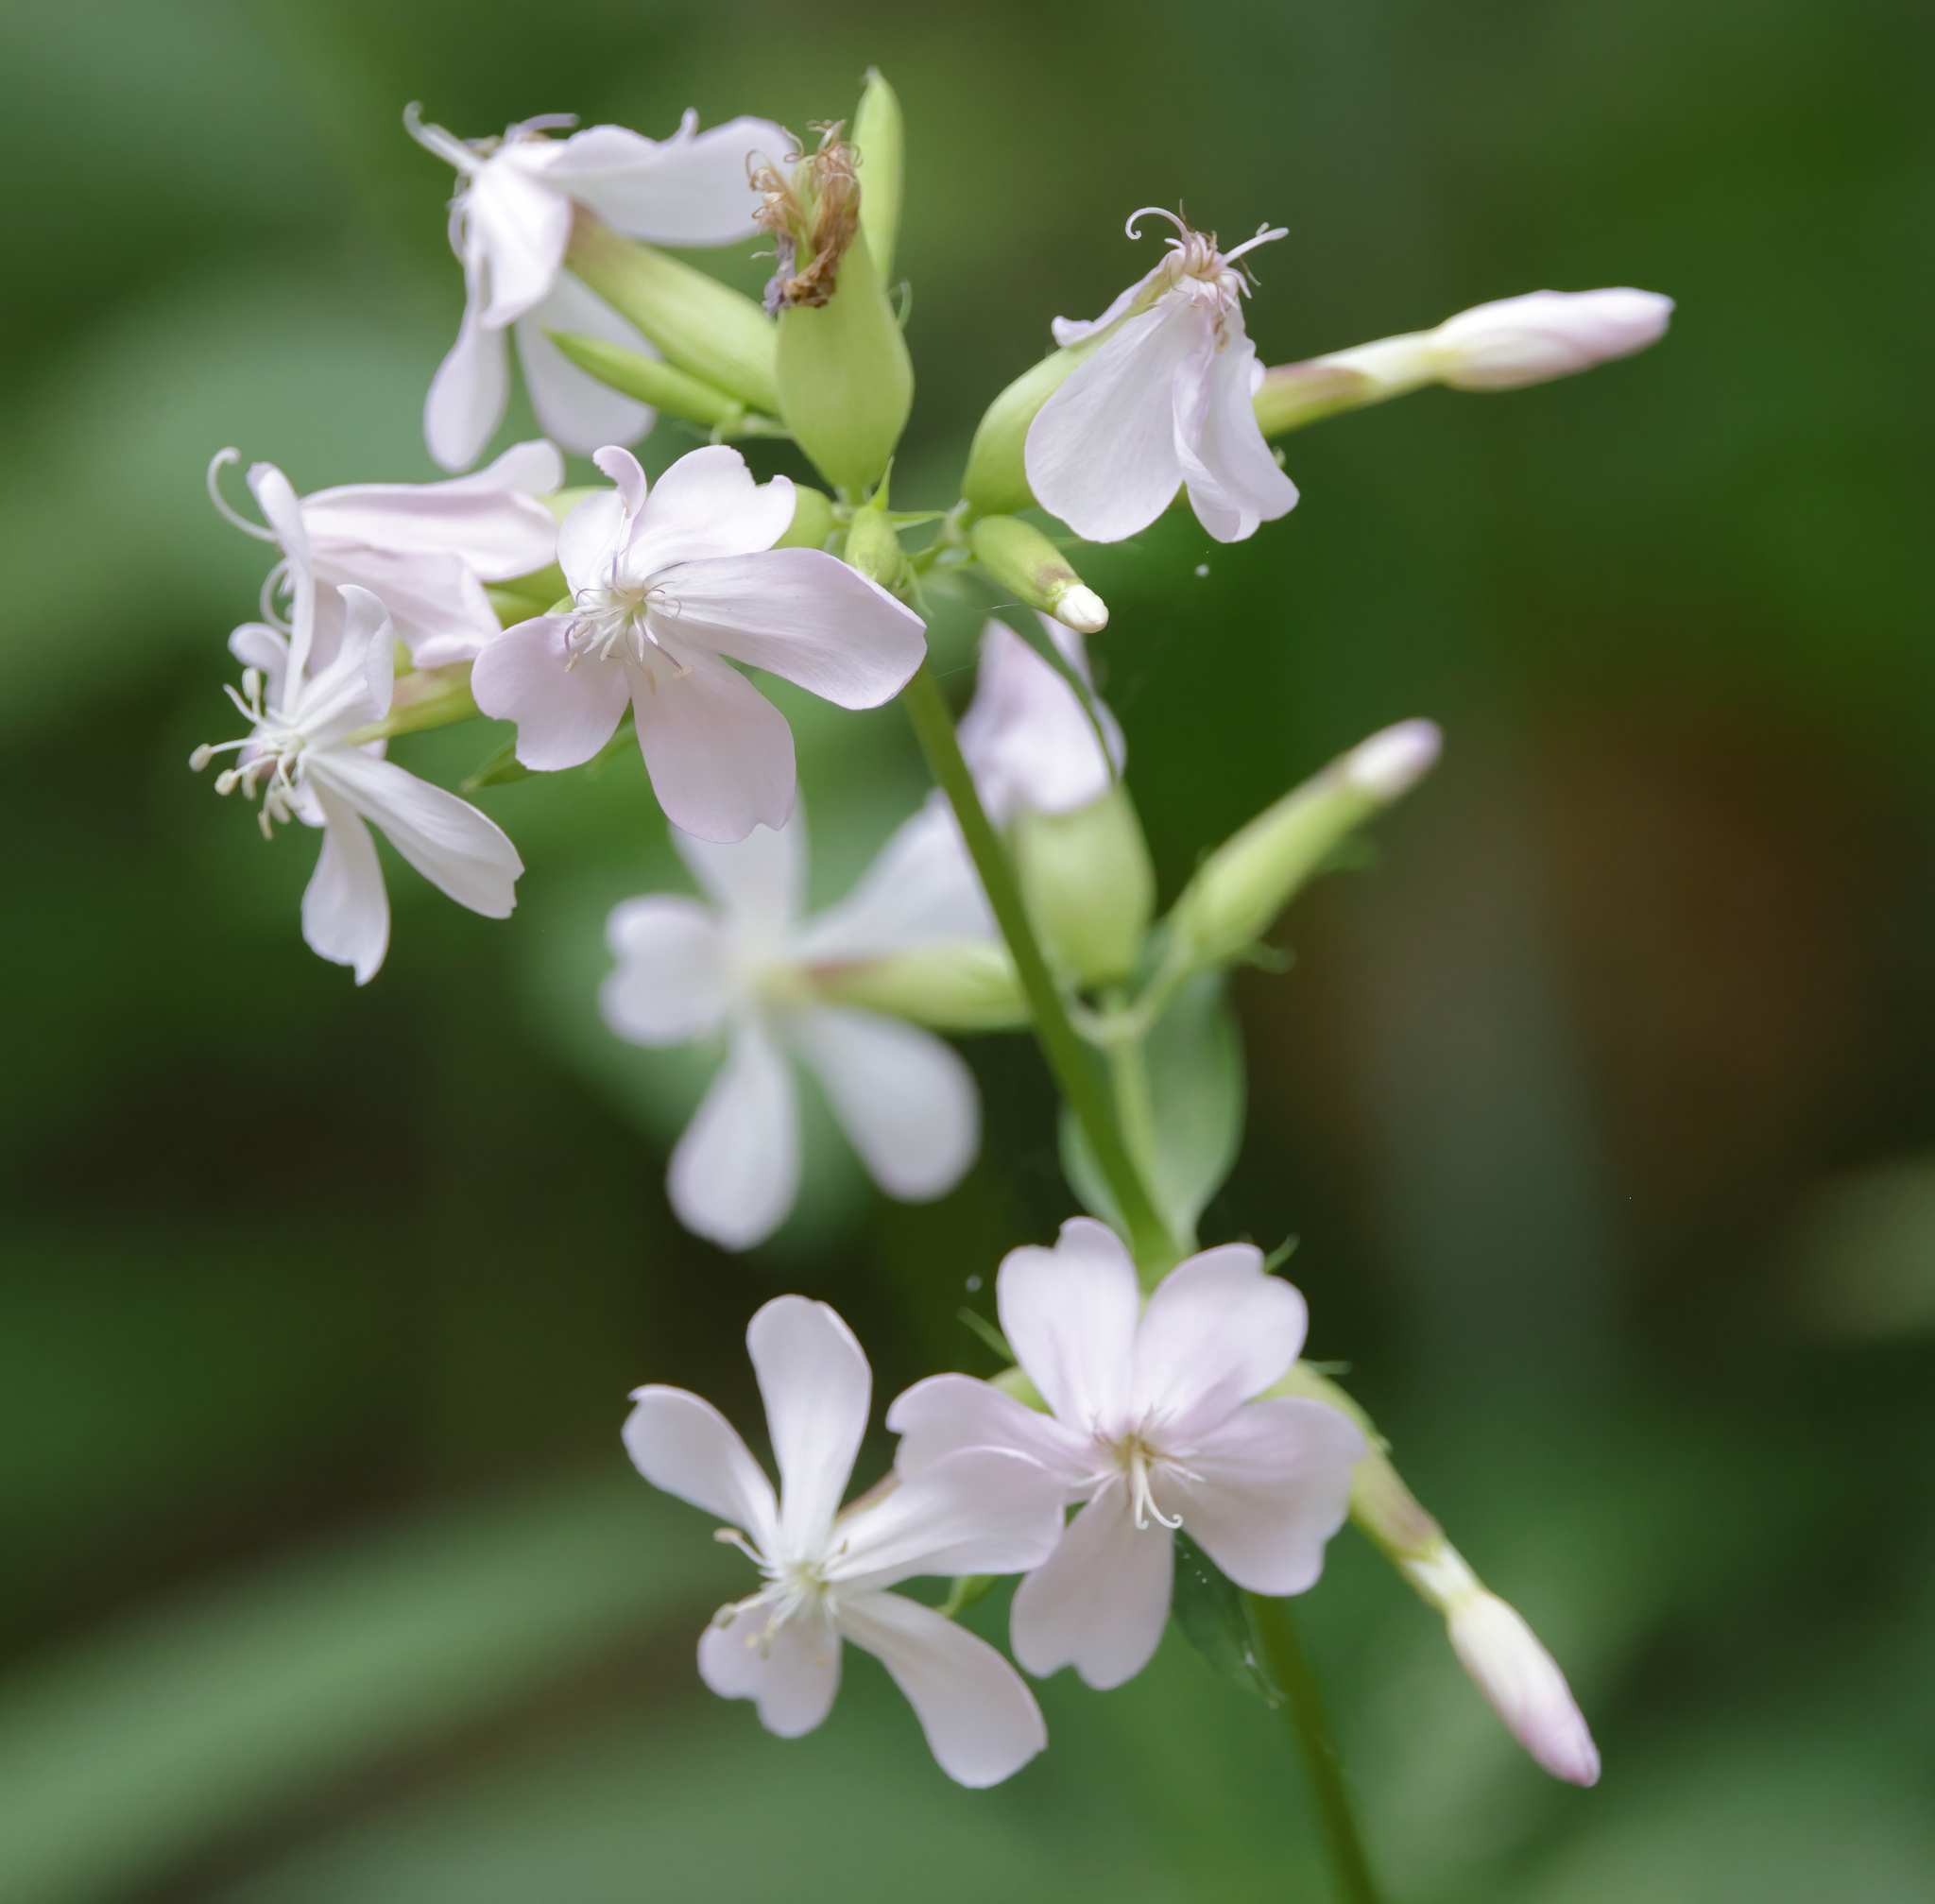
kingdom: Plantae
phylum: Tracheophyta
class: Magnoliopsida
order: Caryophyllales
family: Caryophyllaceae
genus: Saponaria
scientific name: Saponaria officinalis
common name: Soapwort
